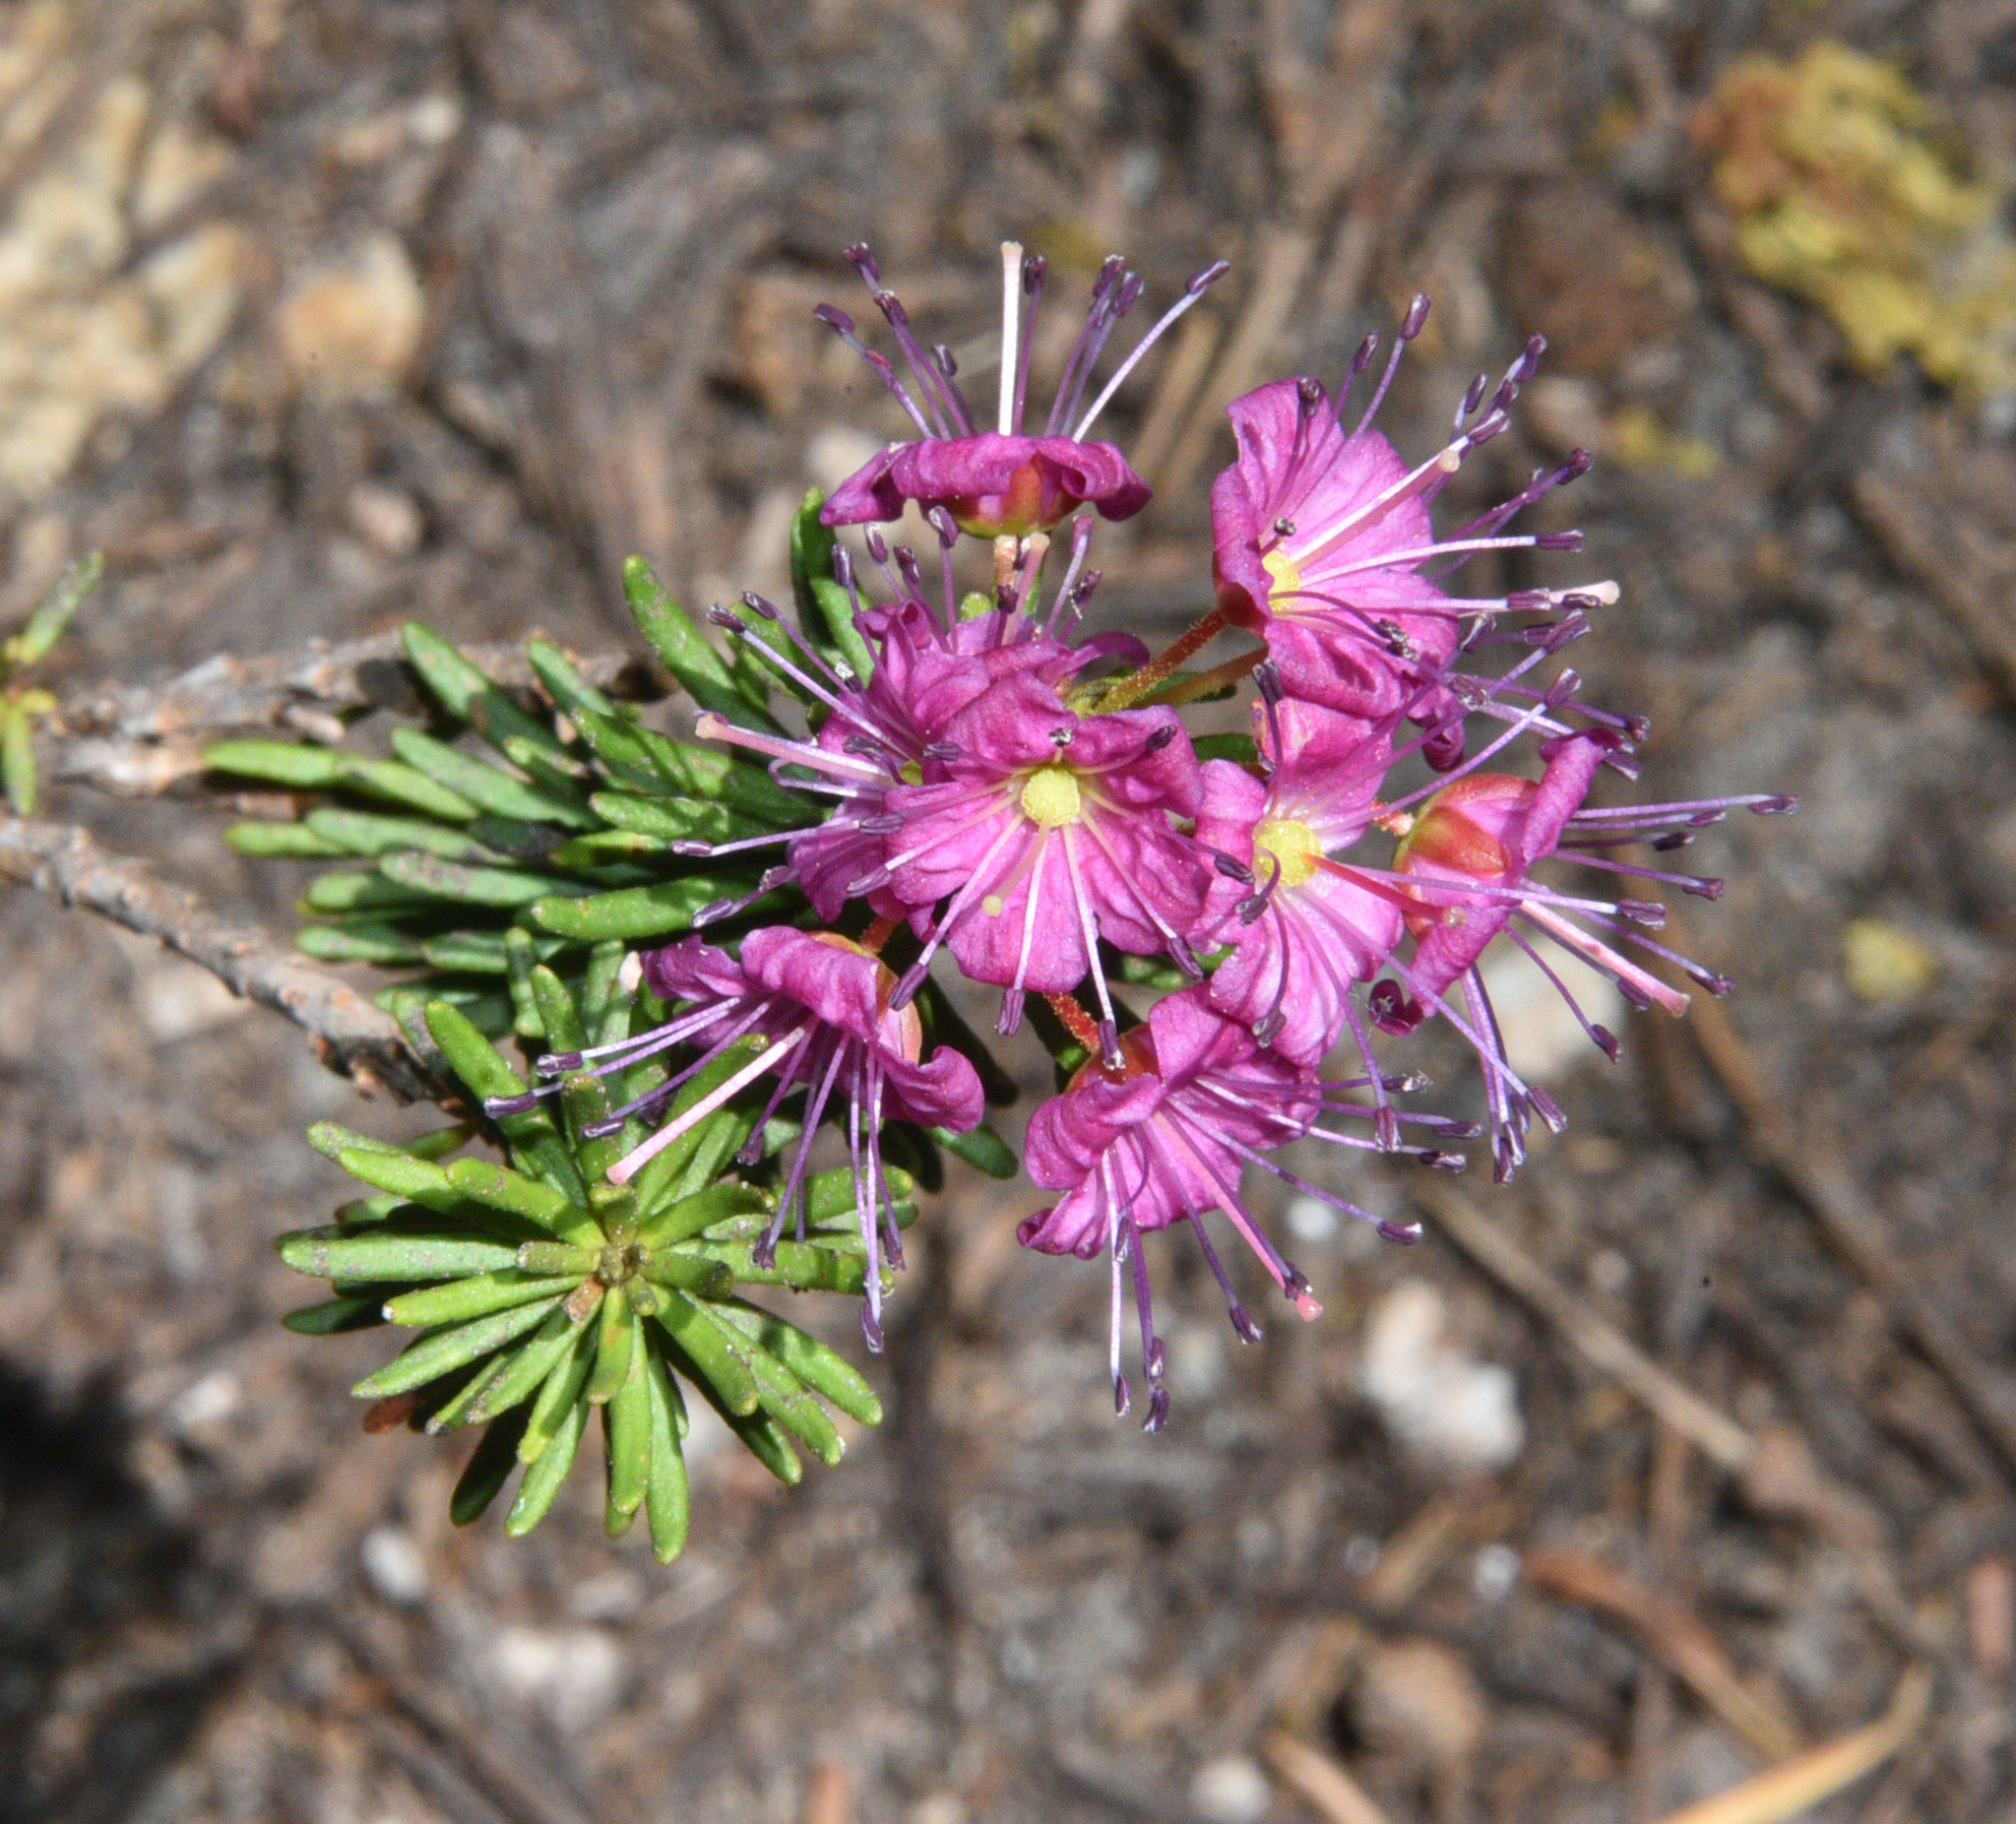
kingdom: Plantae
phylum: Tracheophyta
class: Magnoliopsida
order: Ericales
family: Ericaceae
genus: Phyllodoce
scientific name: Phyllodoce breweri
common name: Brewer's mountain-heather
